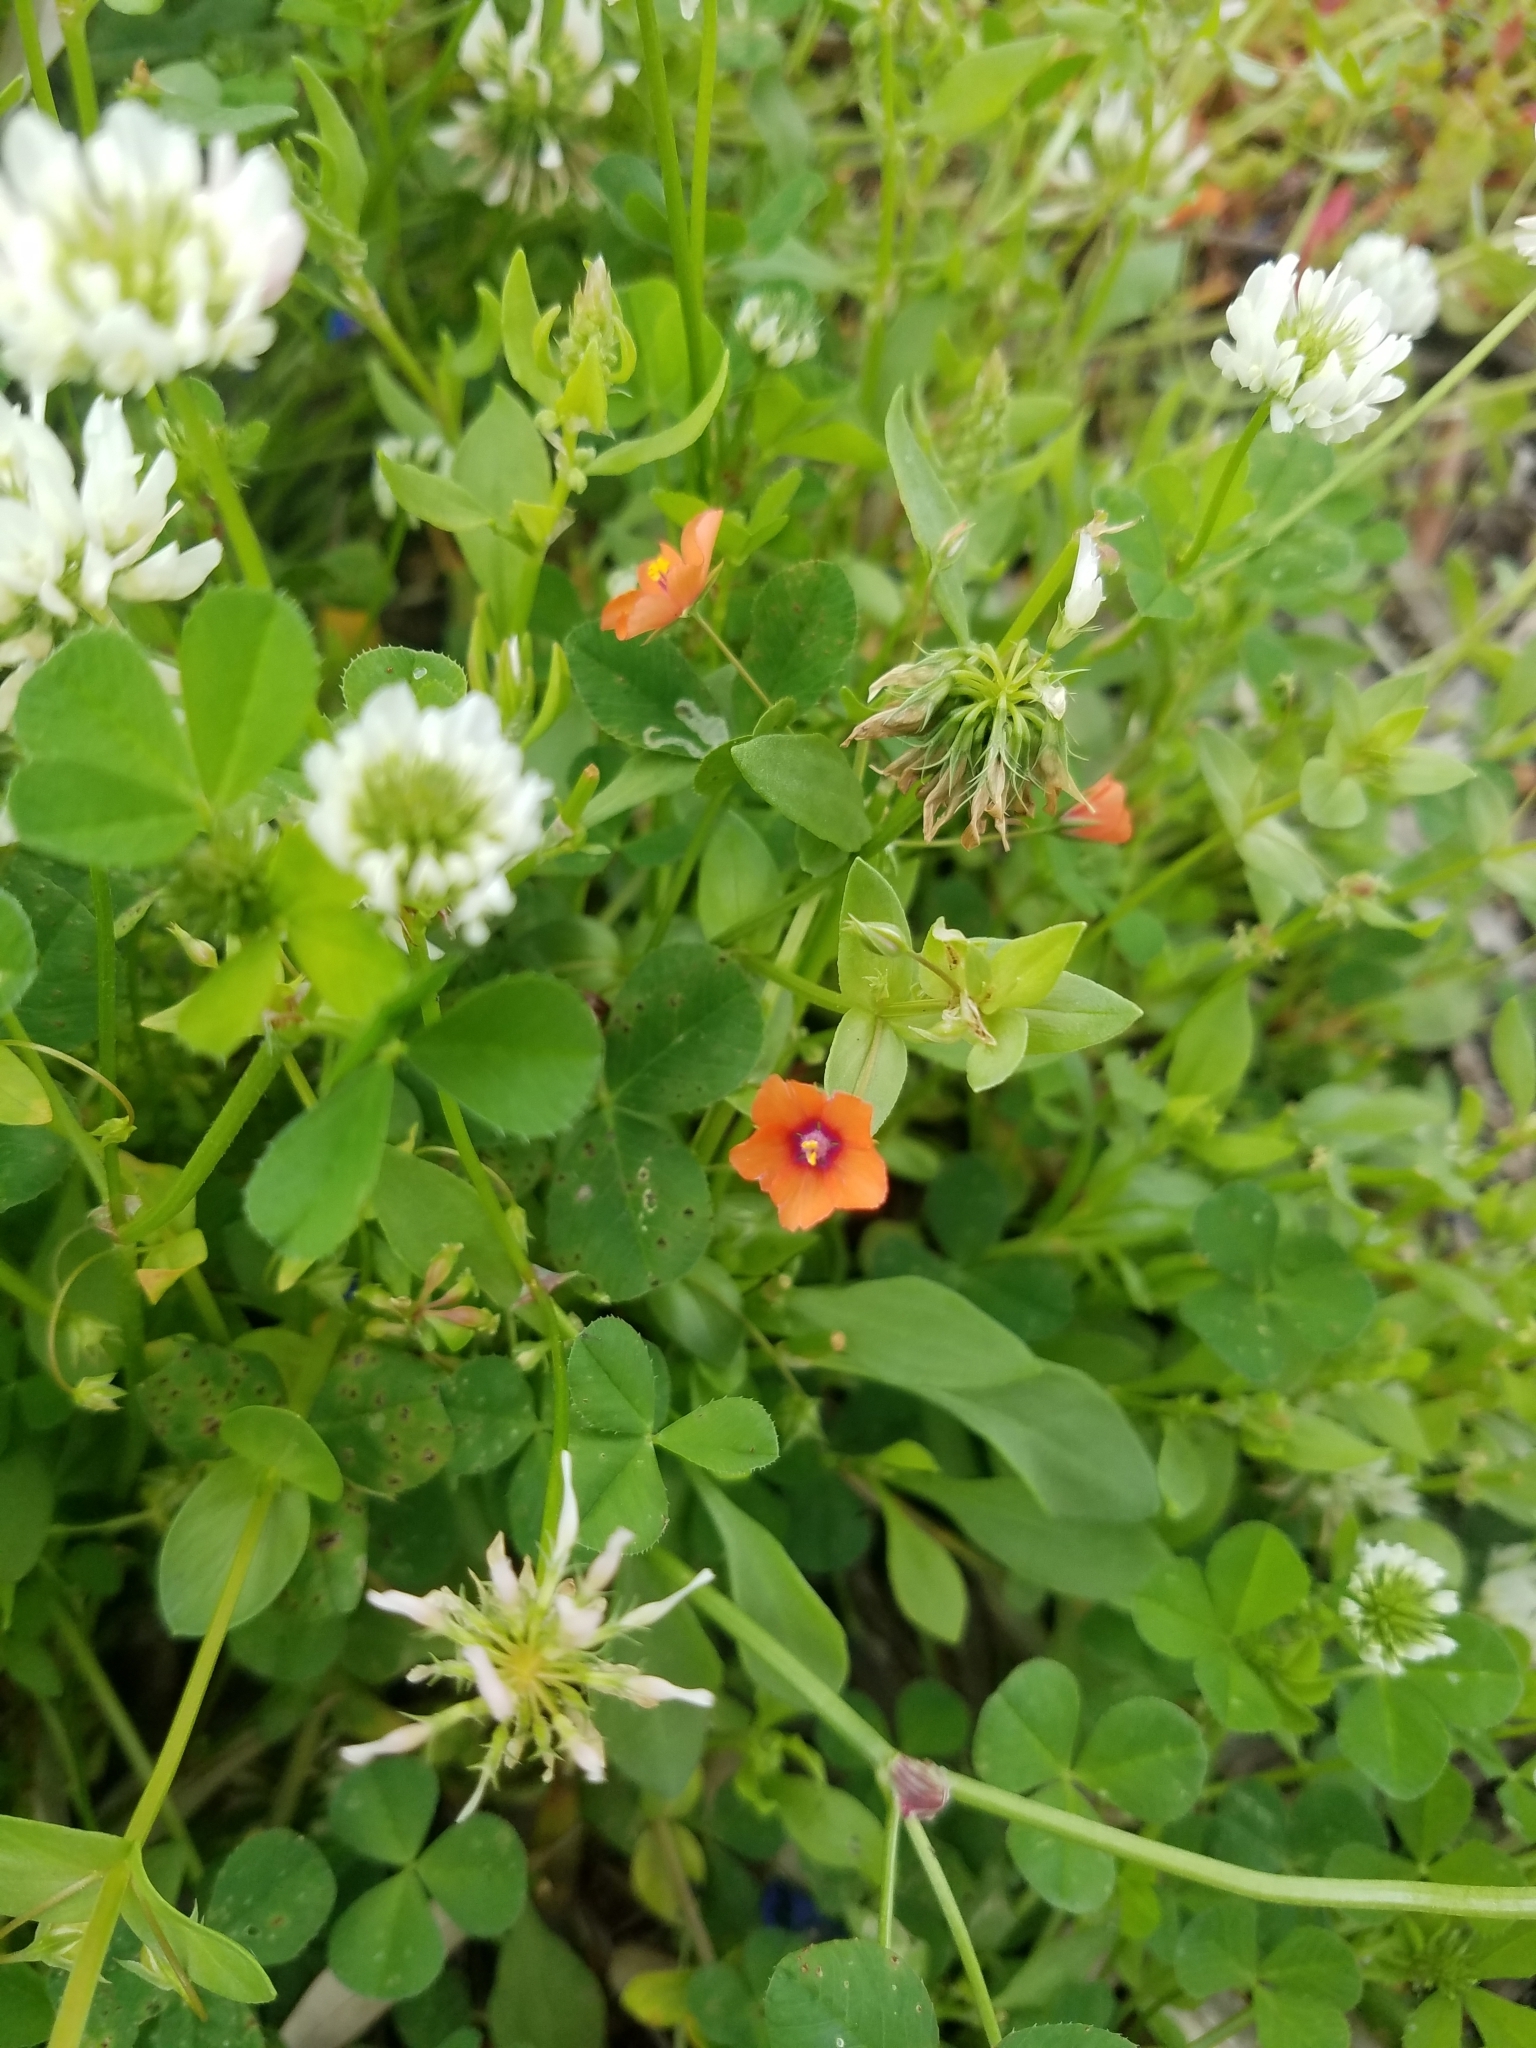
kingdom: Plantae
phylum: Tracheophyta
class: Magnoliopsida
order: Ericales
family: Primulaceae
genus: Lysimachia
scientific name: Lysimachia arvensis
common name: Scarlet pimpernel
